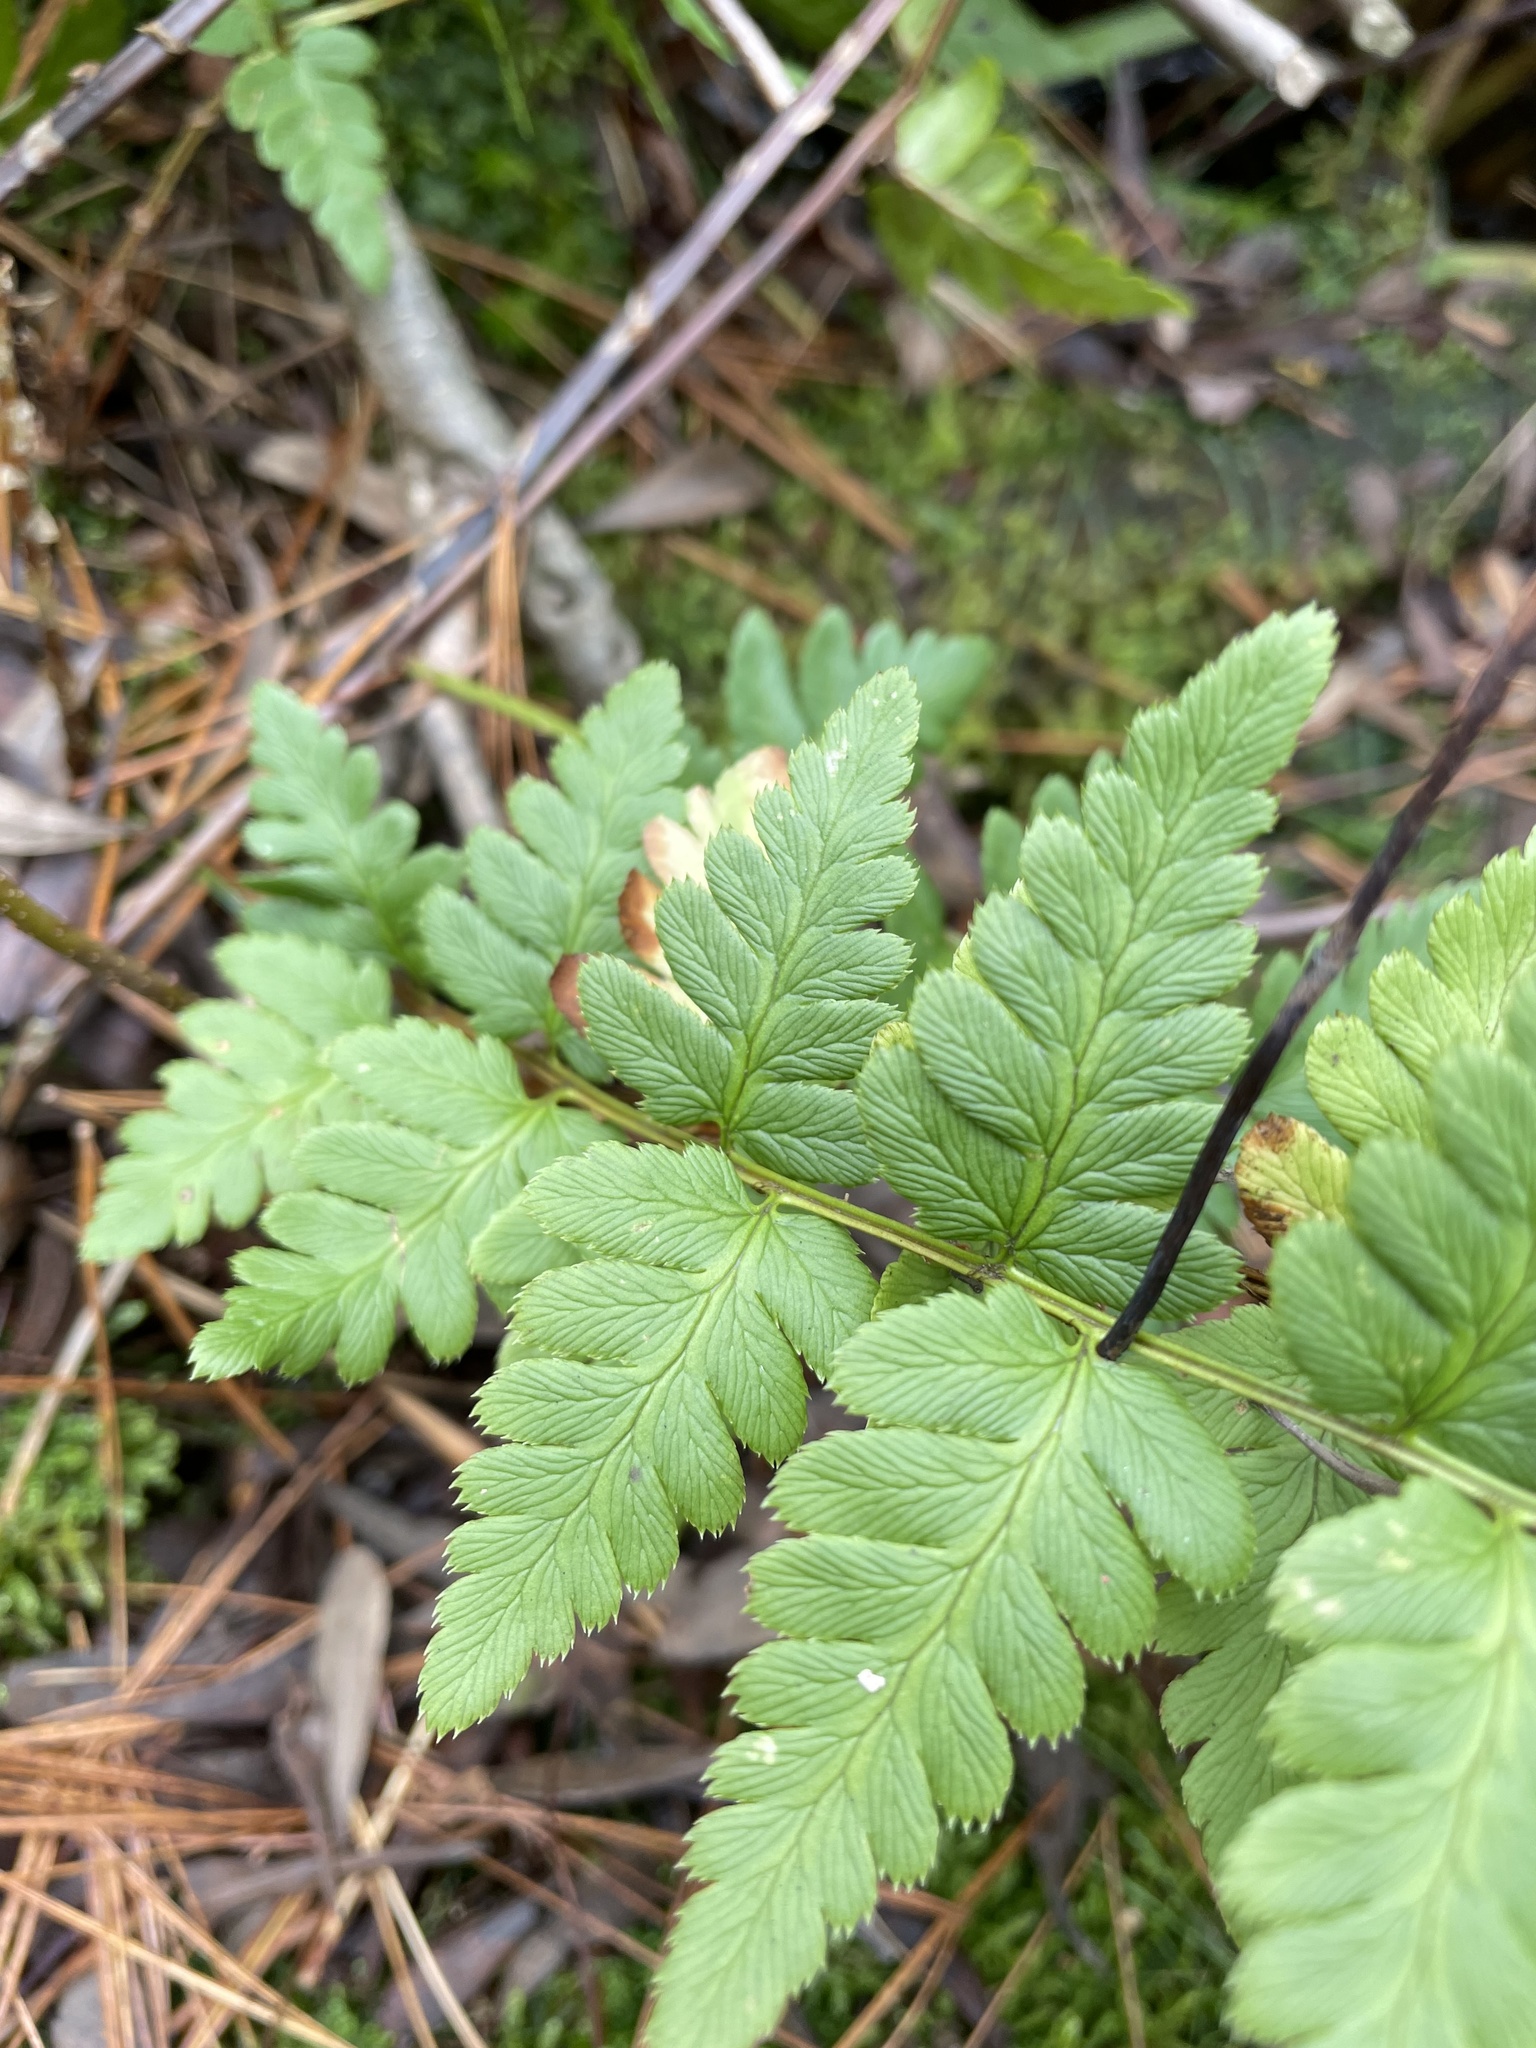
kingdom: Plantae
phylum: Tracheophyta
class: Polypodiopsida
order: Polypodiales
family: Dryopteridaceae
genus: Dryopteris
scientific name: Dryopteris cristata
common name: Crested wood fern
